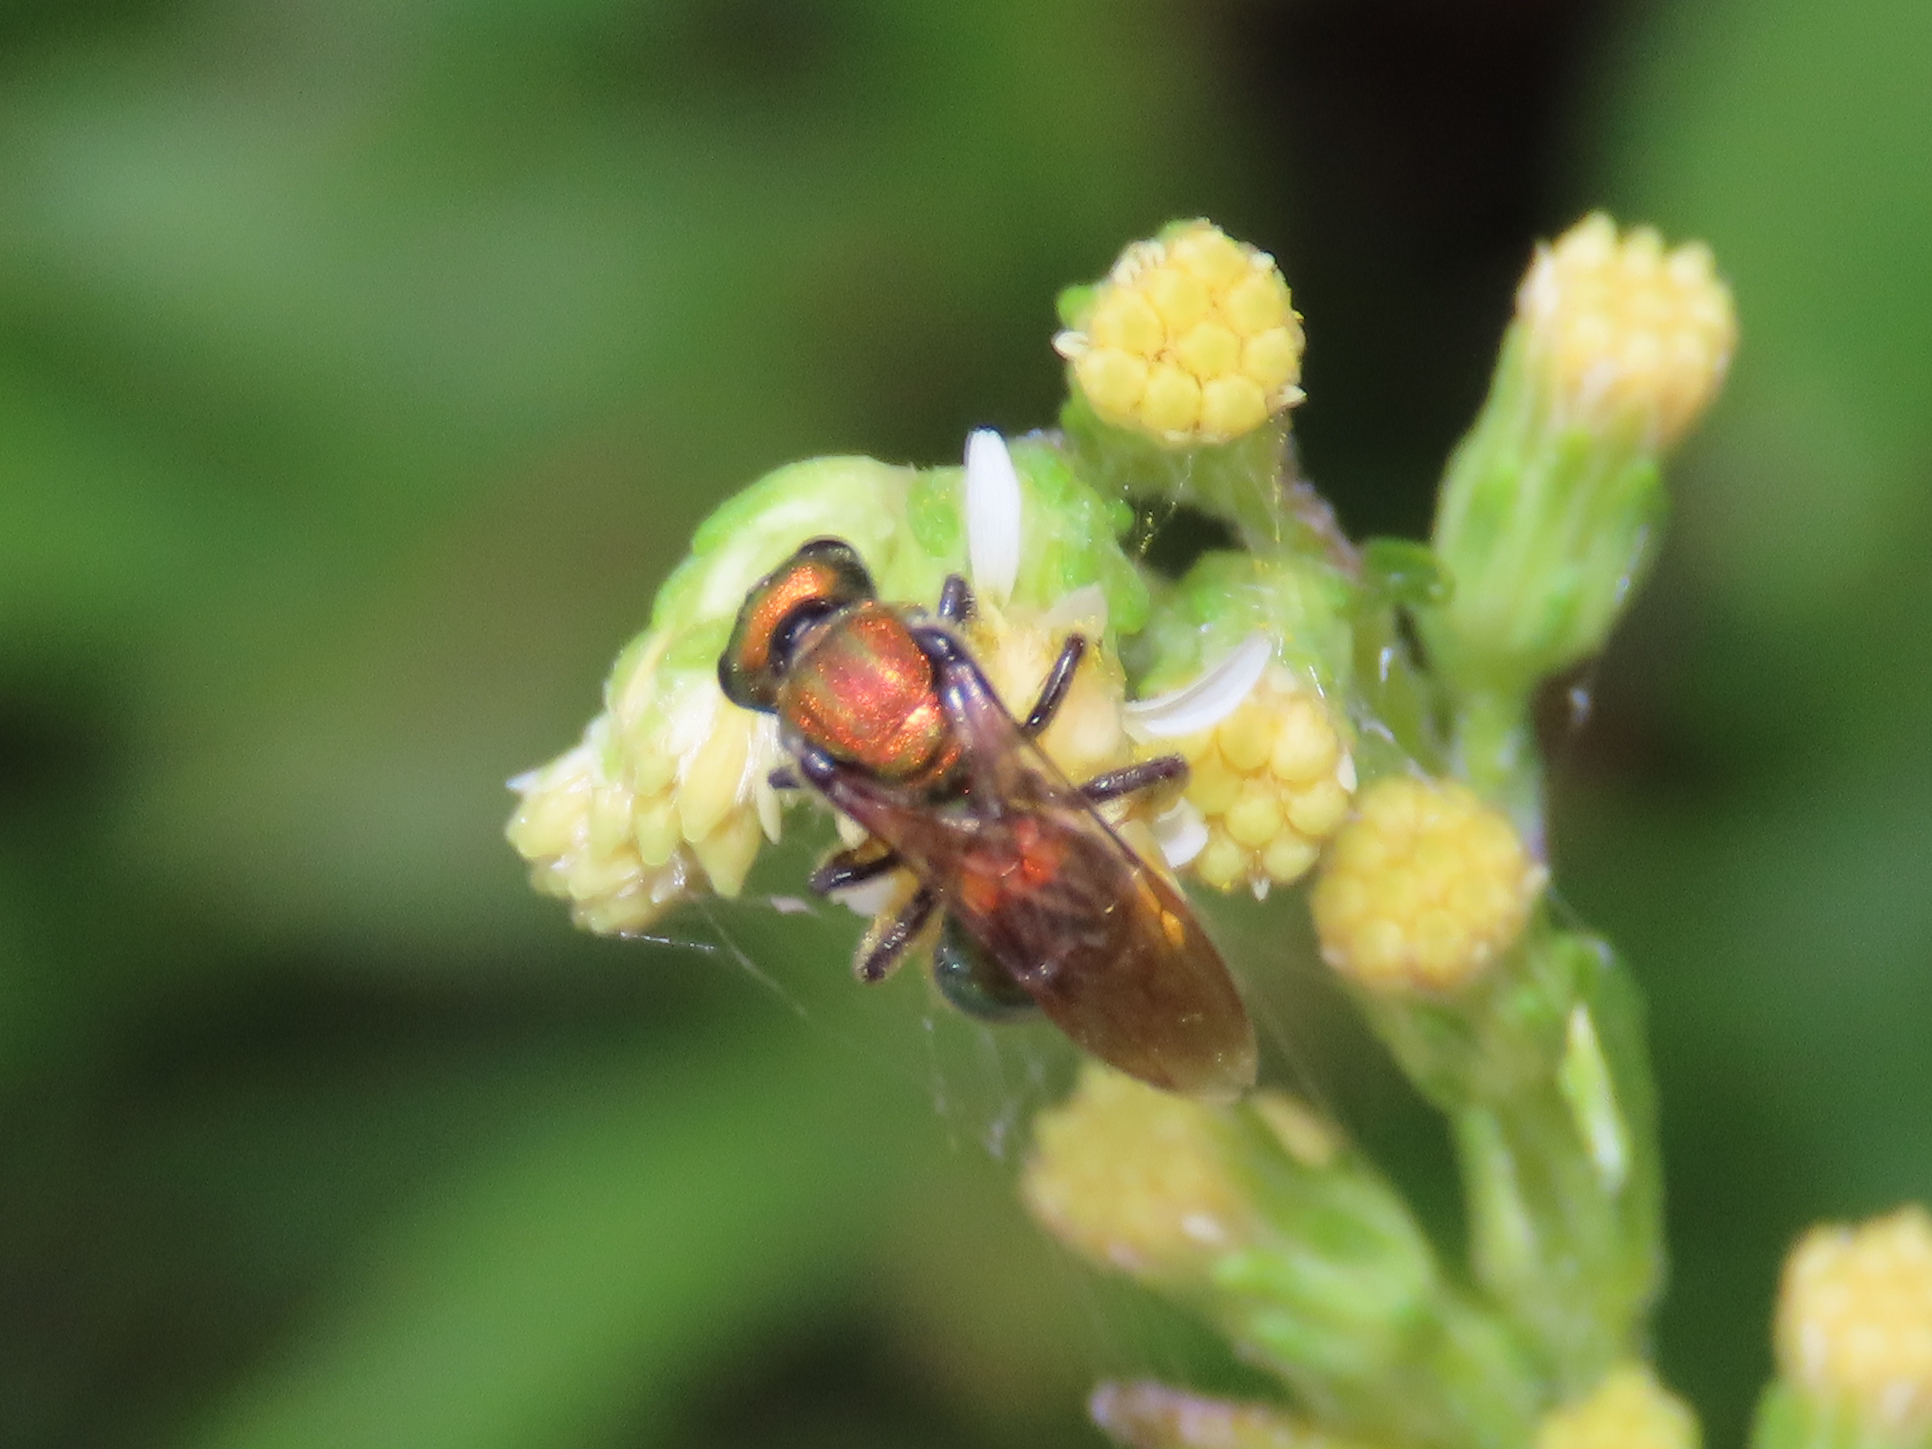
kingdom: Animalia
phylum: Arthropoda
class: Insecta
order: Hymenoptera
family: Halictidae
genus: Augochlora
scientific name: Augochlora pura
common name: Pure green sweat bee
